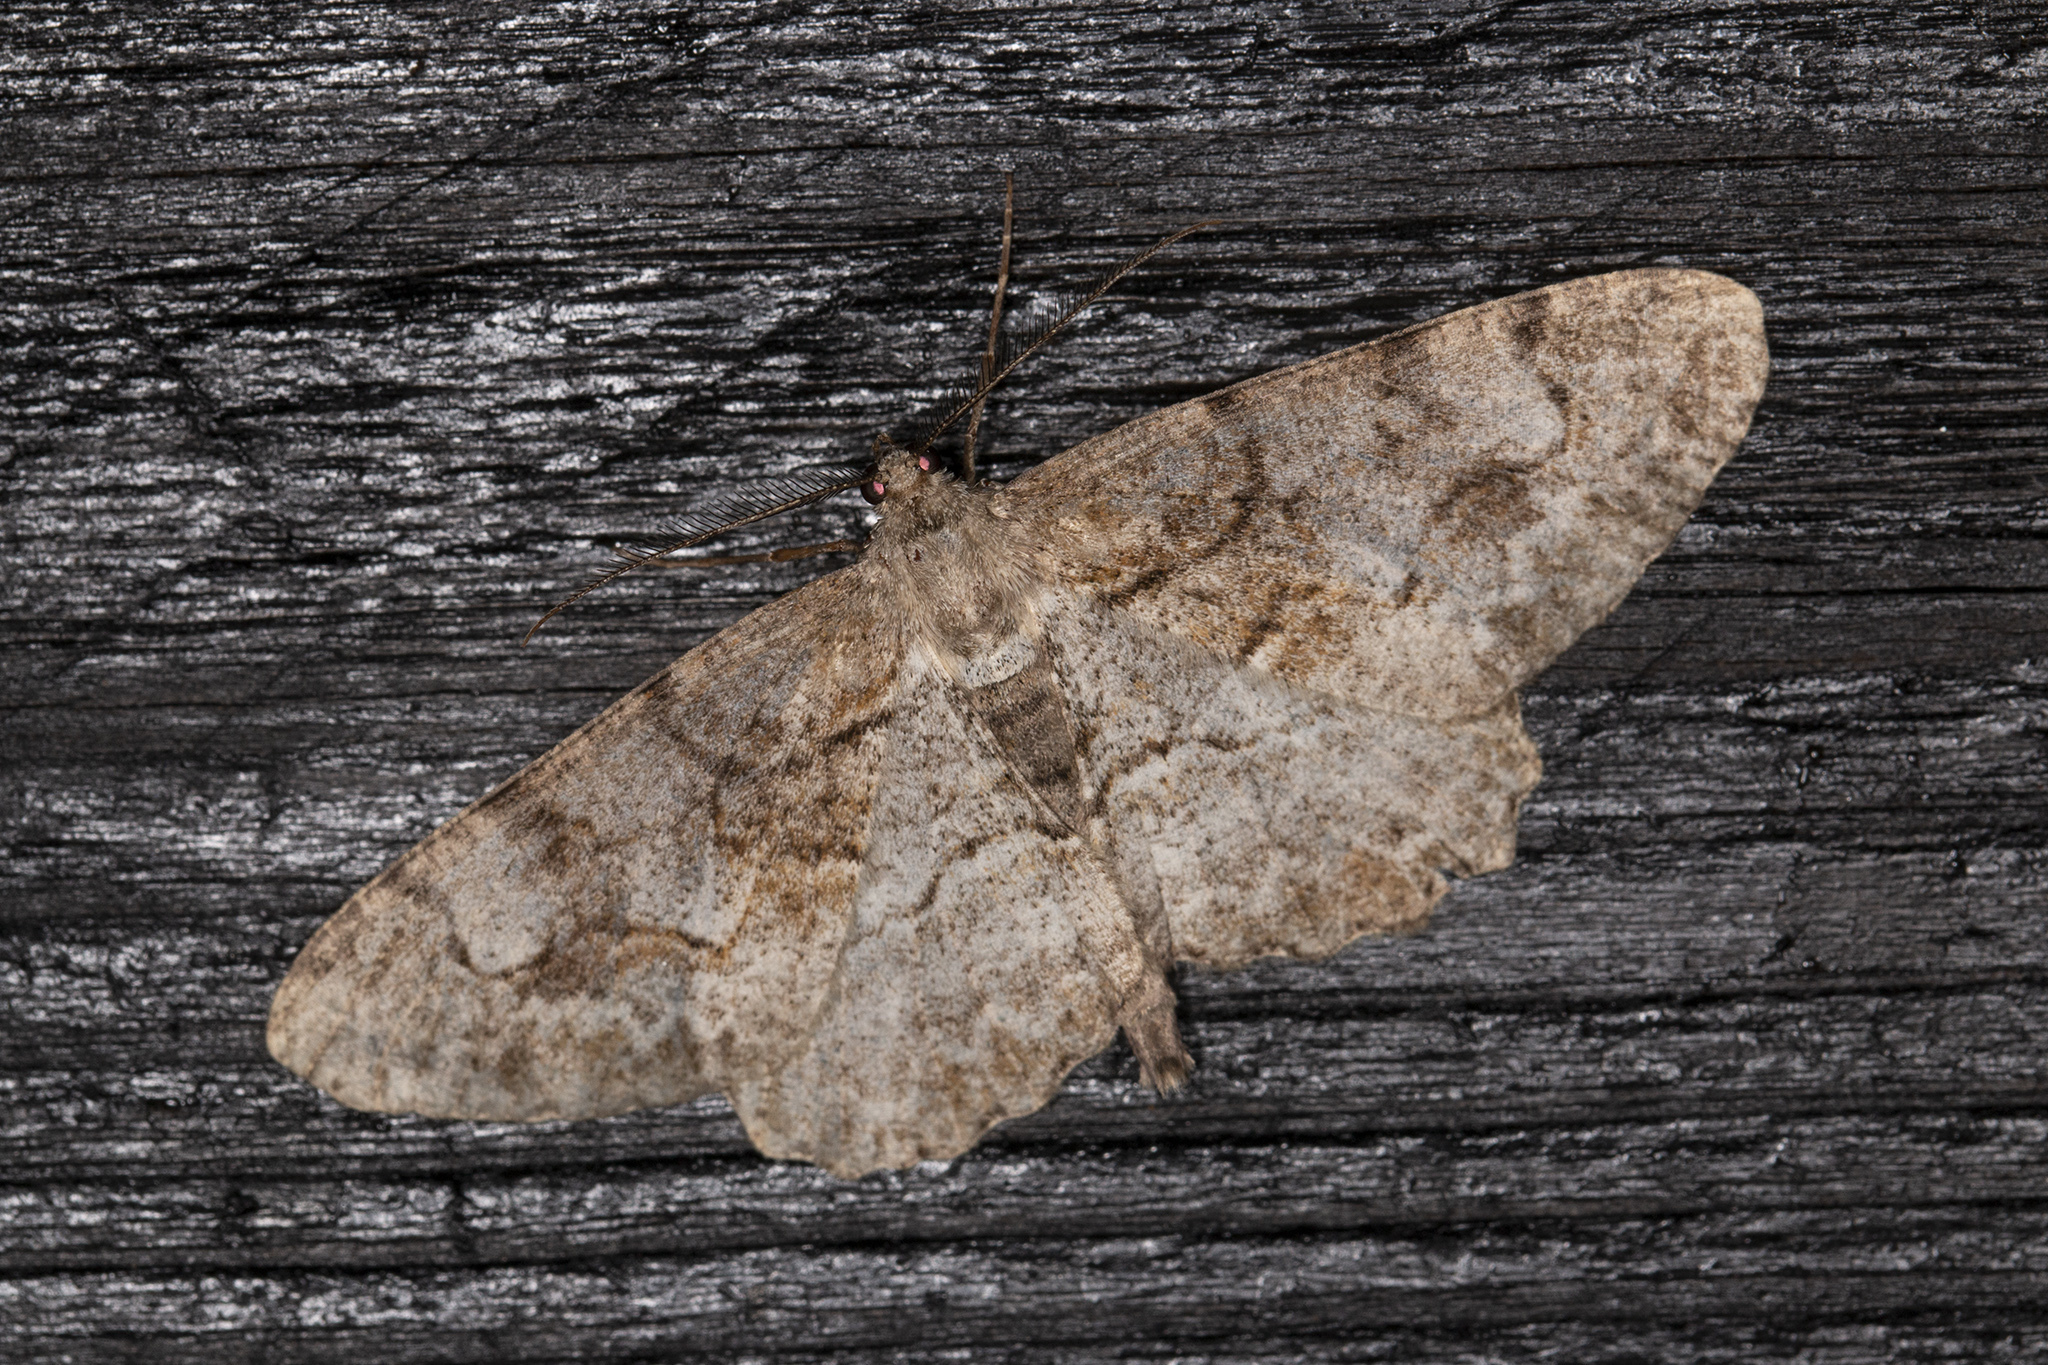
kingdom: Animalia
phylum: Arthropoda
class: Insecta
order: Lepidoptera
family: Geometridae
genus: Alcis
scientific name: Alcis repandata
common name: Mottled beauty
